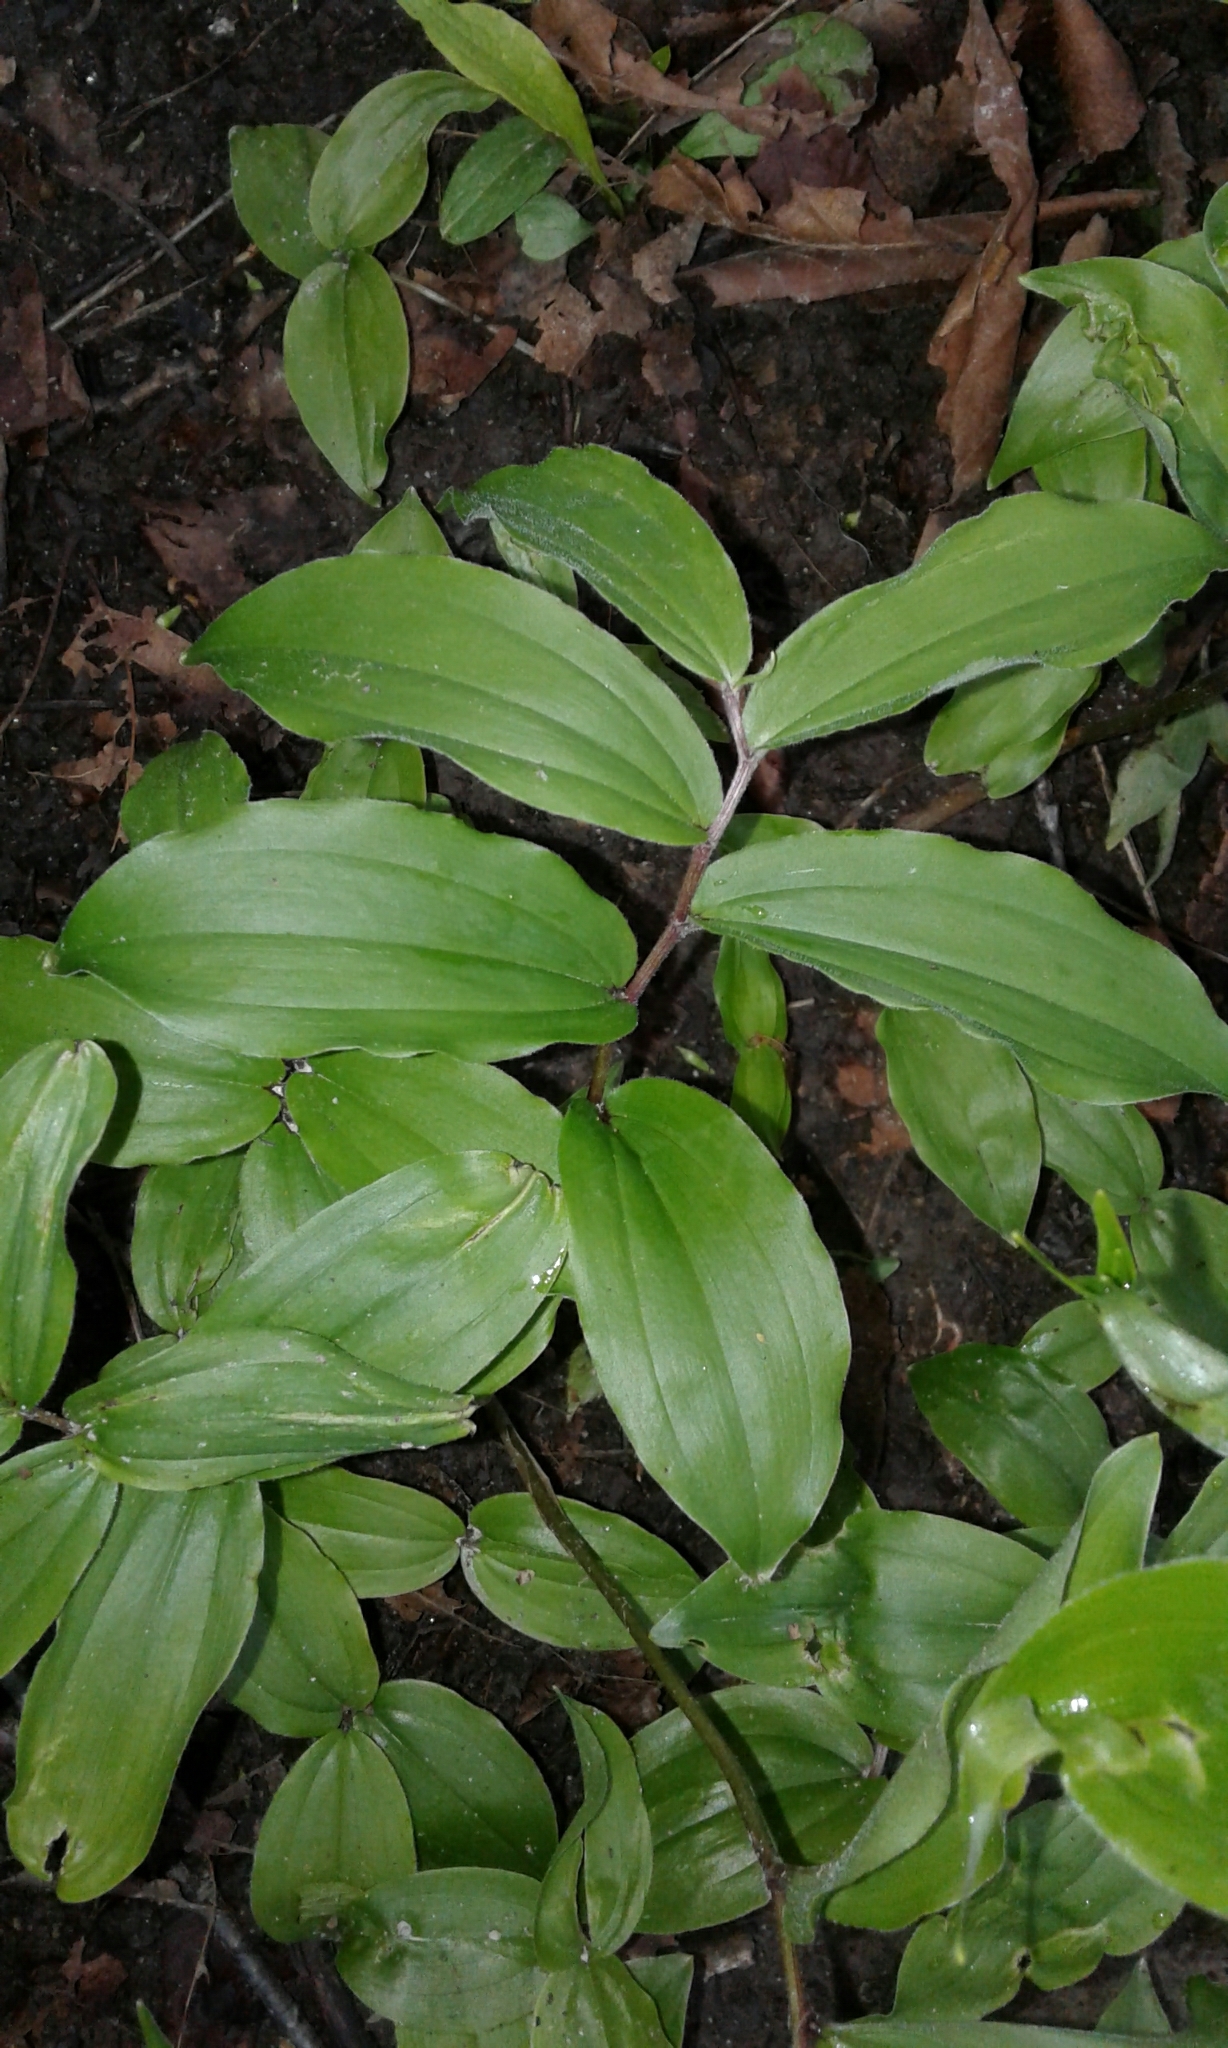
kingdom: Plantae
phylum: Tracheophyta
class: Liliopsida
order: Asparagales
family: Asparagaceae
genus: Maianthemum
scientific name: Maianthemum racemosum
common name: False spikenard
